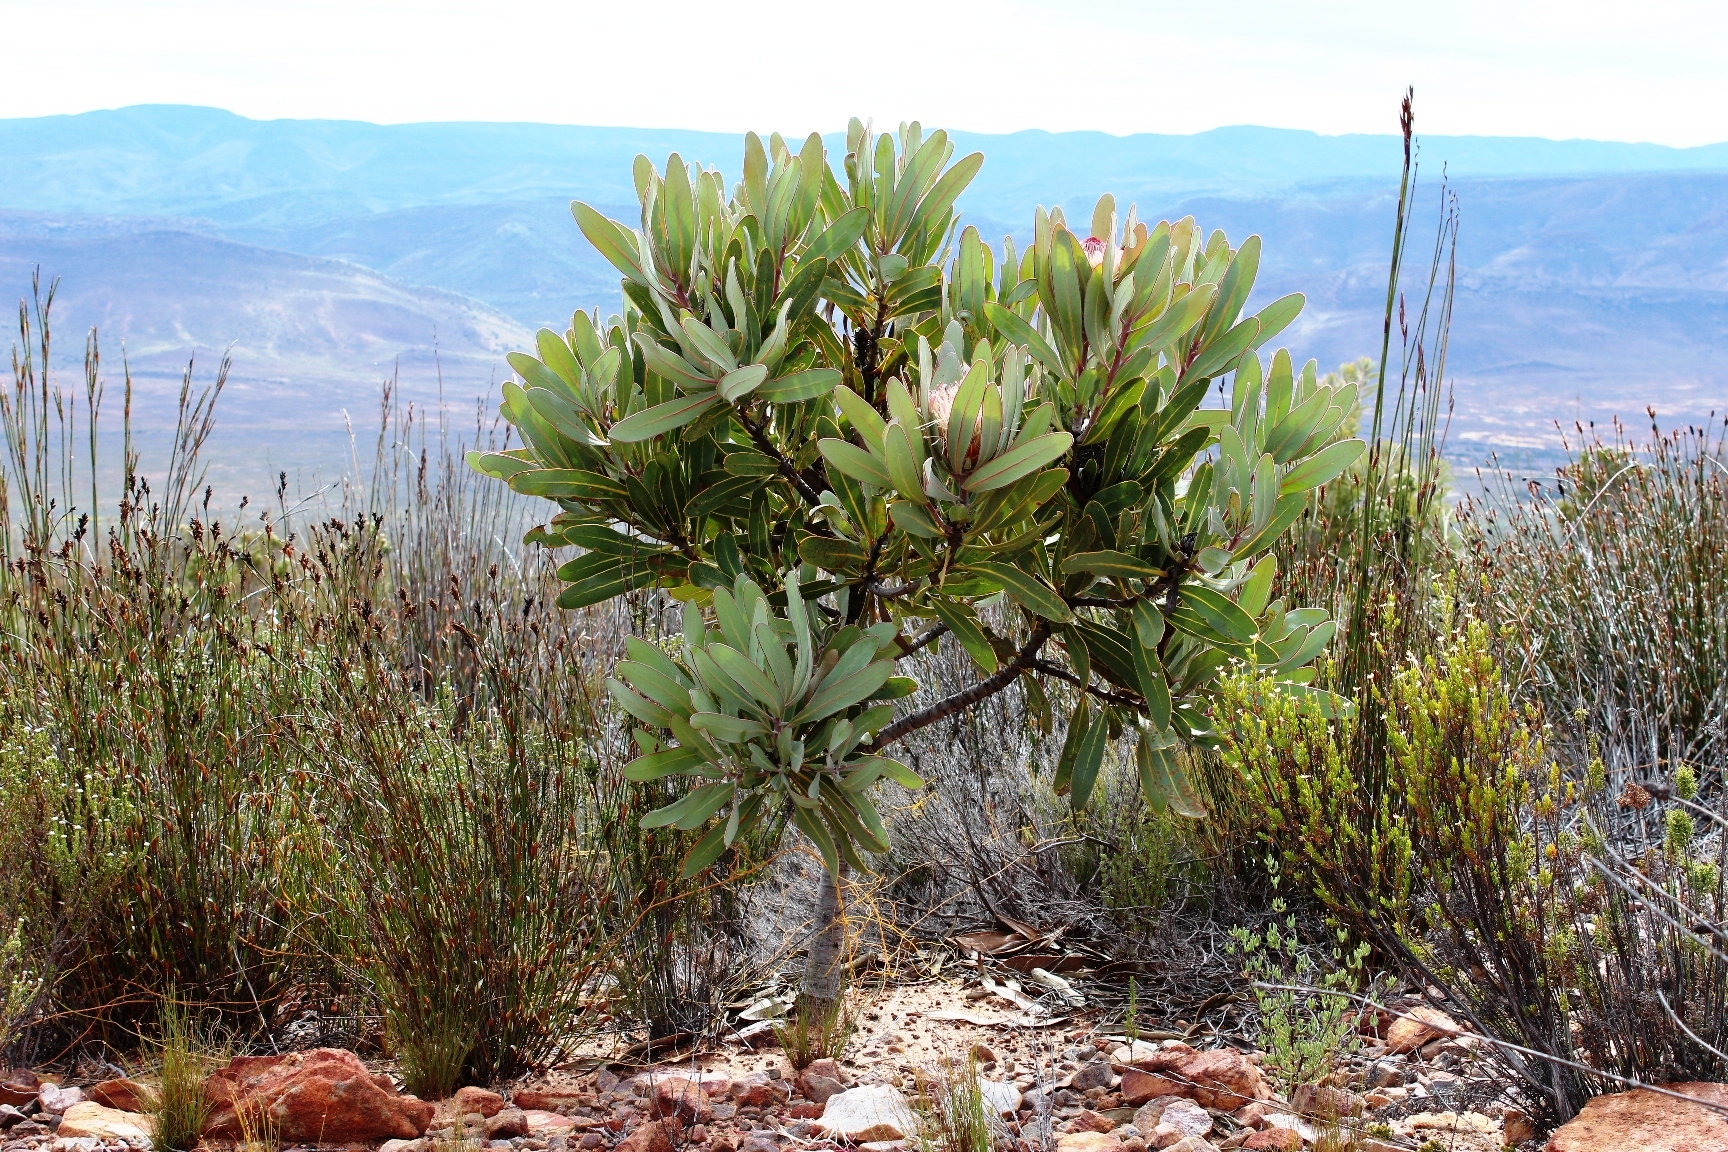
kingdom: Plantae
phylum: Tracheophyta
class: Magnoliopsida
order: Proteales
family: Proteaceae
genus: Protea
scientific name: Protea lorifolia
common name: Strap-leaved protea
